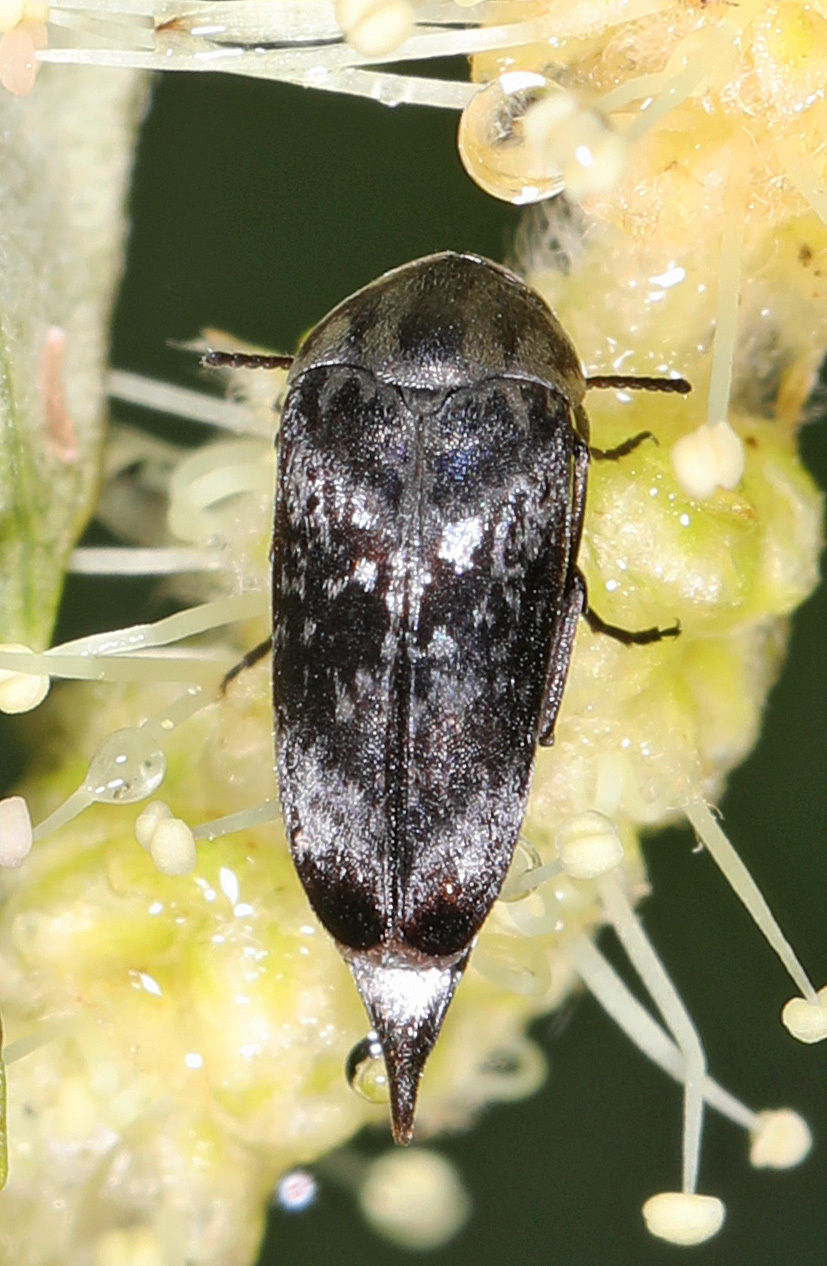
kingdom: Animalia
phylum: Arthropoda
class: Insecta
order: Coleoptera
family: Mordellidae
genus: Mordella
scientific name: Mordella marginata
